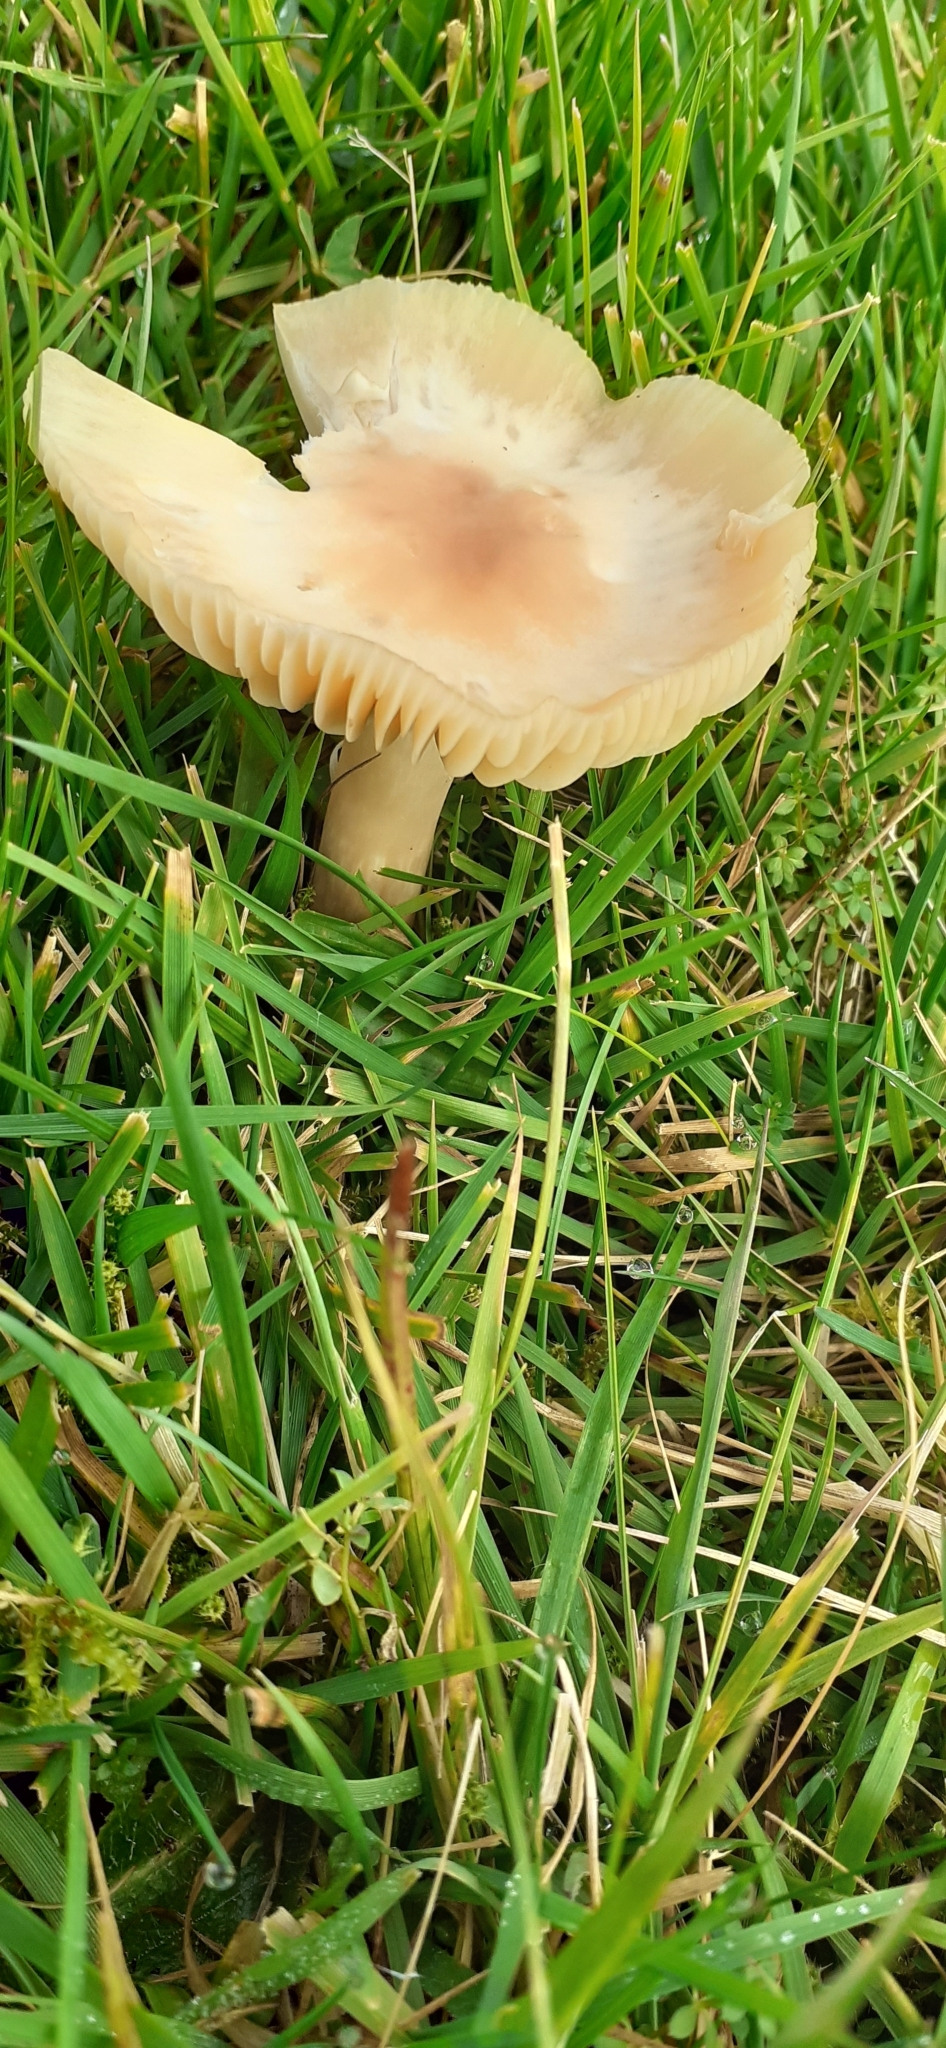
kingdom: Fungi
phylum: Basidiomycota
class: Agaricomycetes
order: Agaricales
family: Hygrophoraceae
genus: Cuphophyllus
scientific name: Cuphophyllus pratensis
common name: Meadow waxcap
